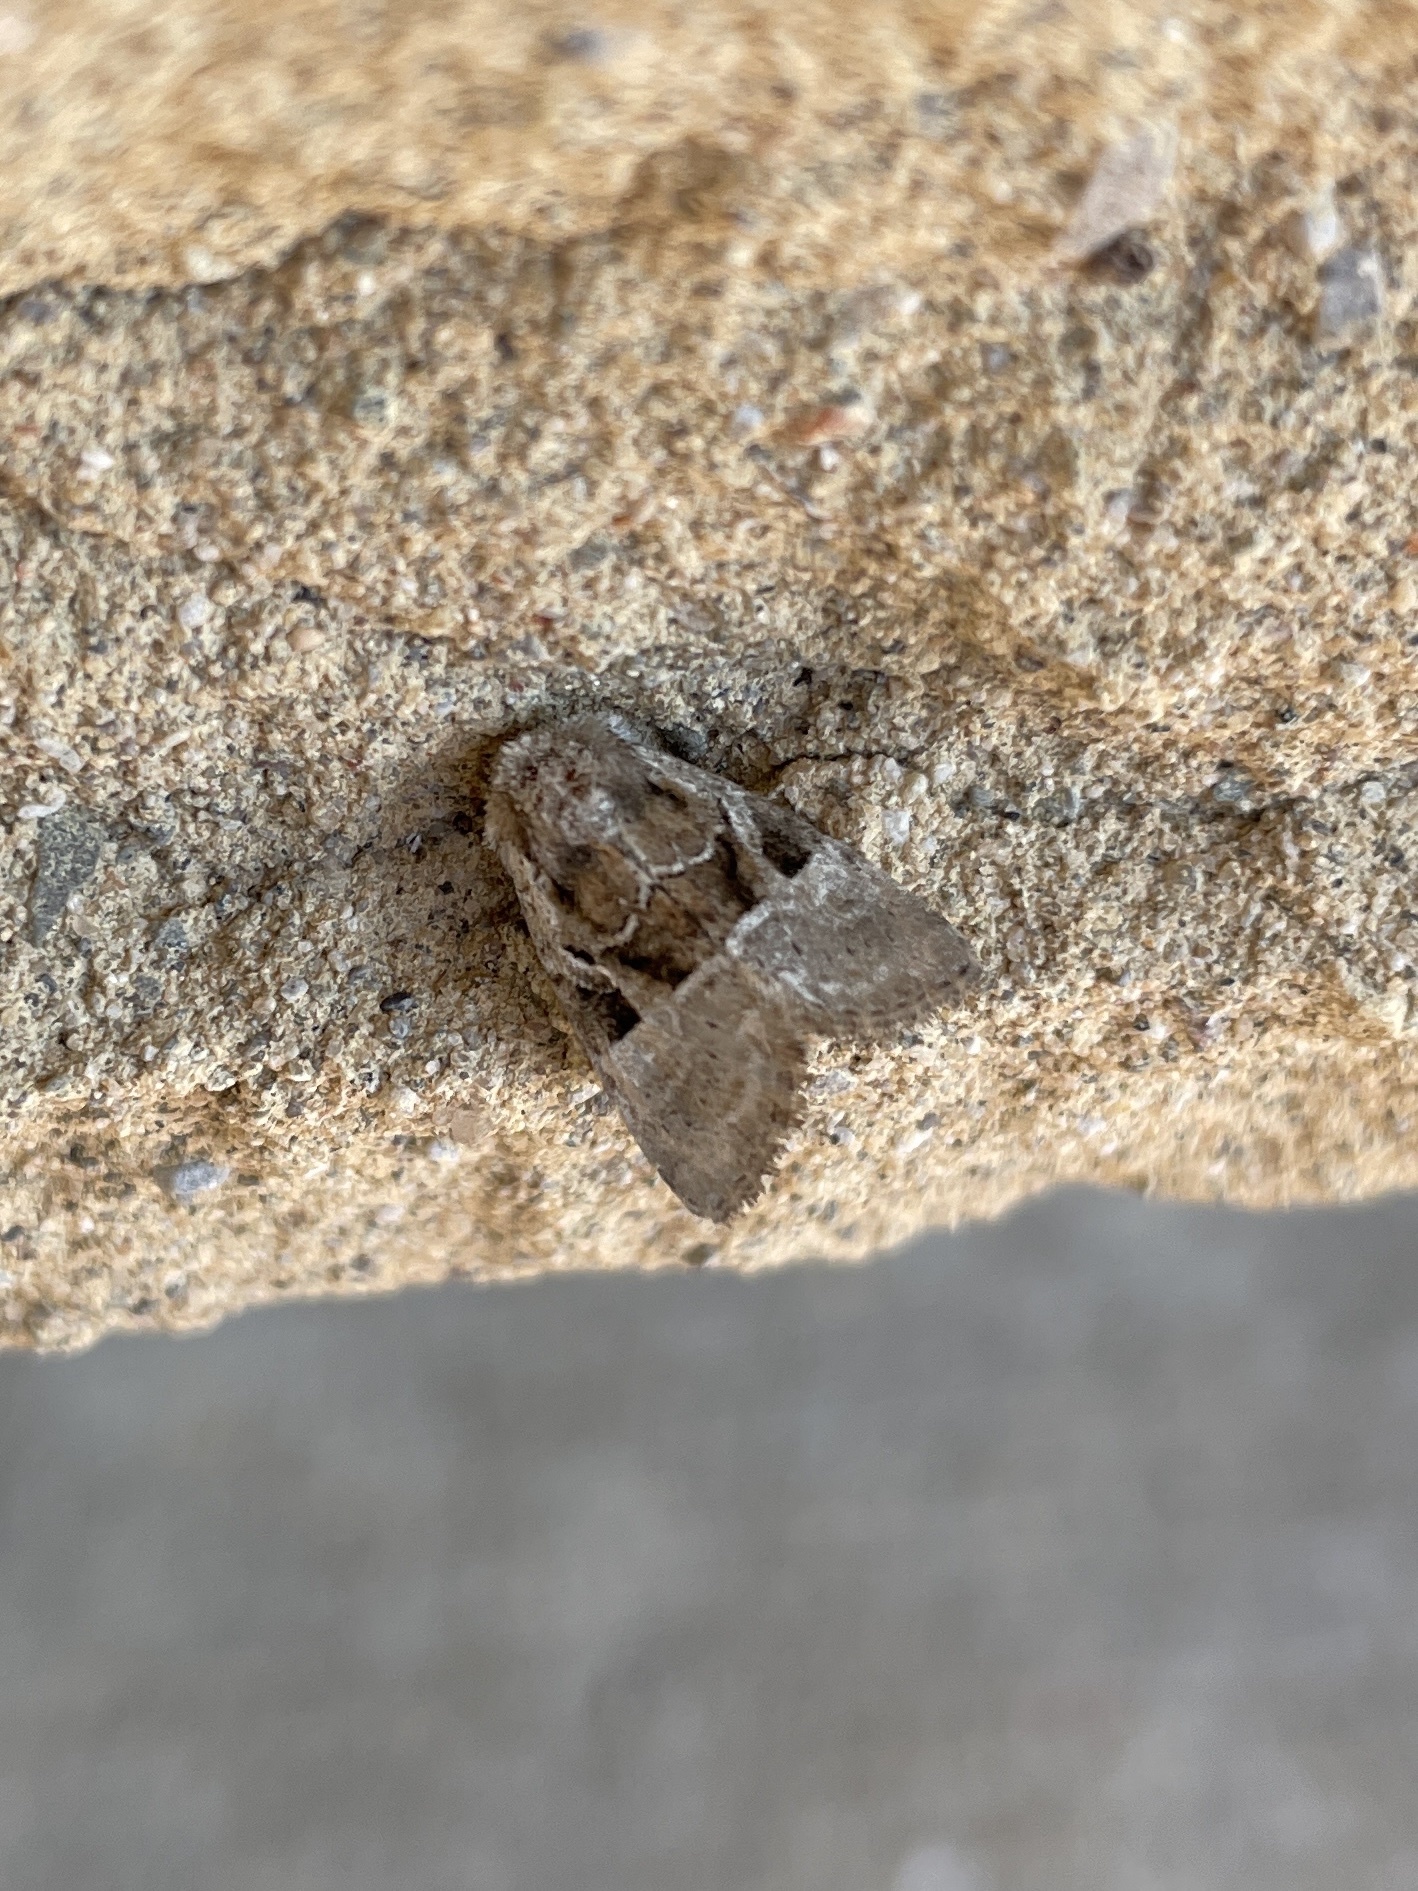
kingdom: Animalia
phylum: Arthropoda
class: Insecta
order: Lepidoptera
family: Noctuidae
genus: Meropleon
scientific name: Meropleon diversicolor
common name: Multicolored sedgeminer moth
